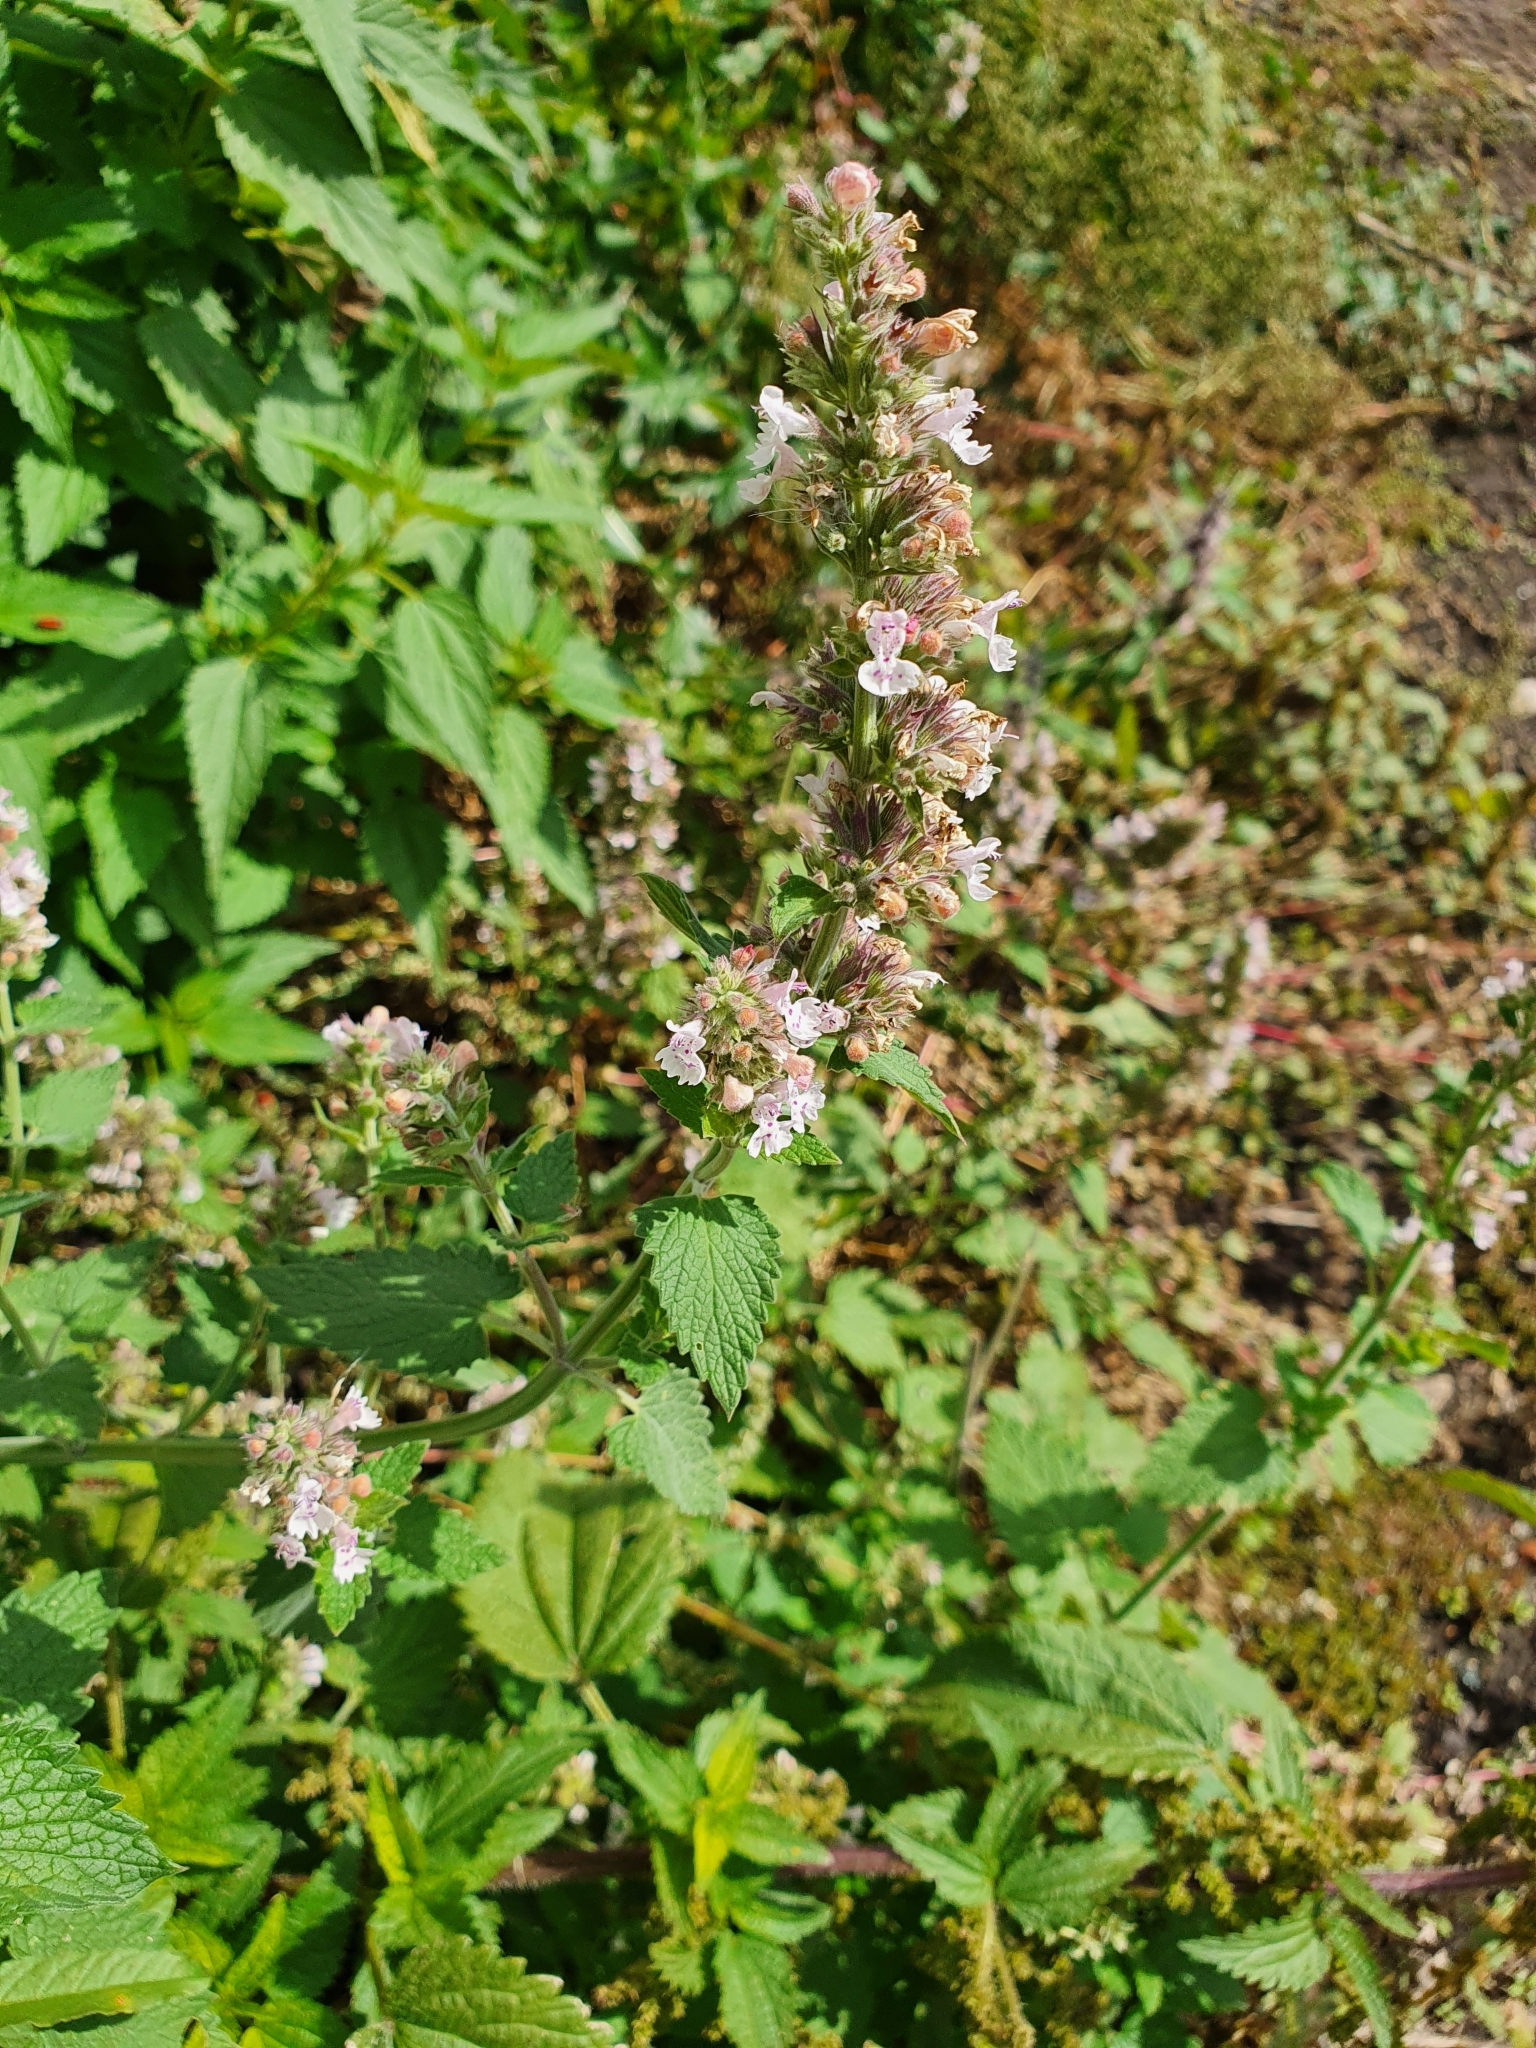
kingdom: Plantae
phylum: Tracheophyta
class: Magnoliopsida
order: Lamiales
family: Lamiaceae
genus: Nepeta
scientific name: Nepeta cataria
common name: Catnip
